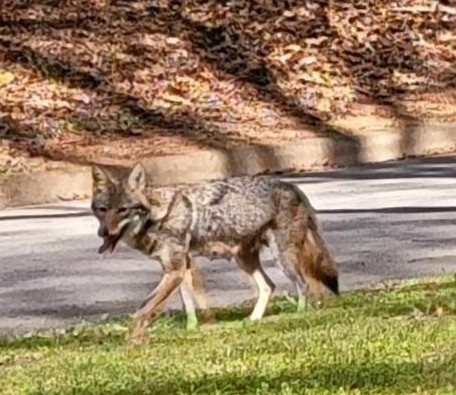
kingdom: Animalia
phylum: Chordata
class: Mammalia
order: Carnivora
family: Canidae
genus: Canis
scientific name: Canis latrans
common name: Coyote
